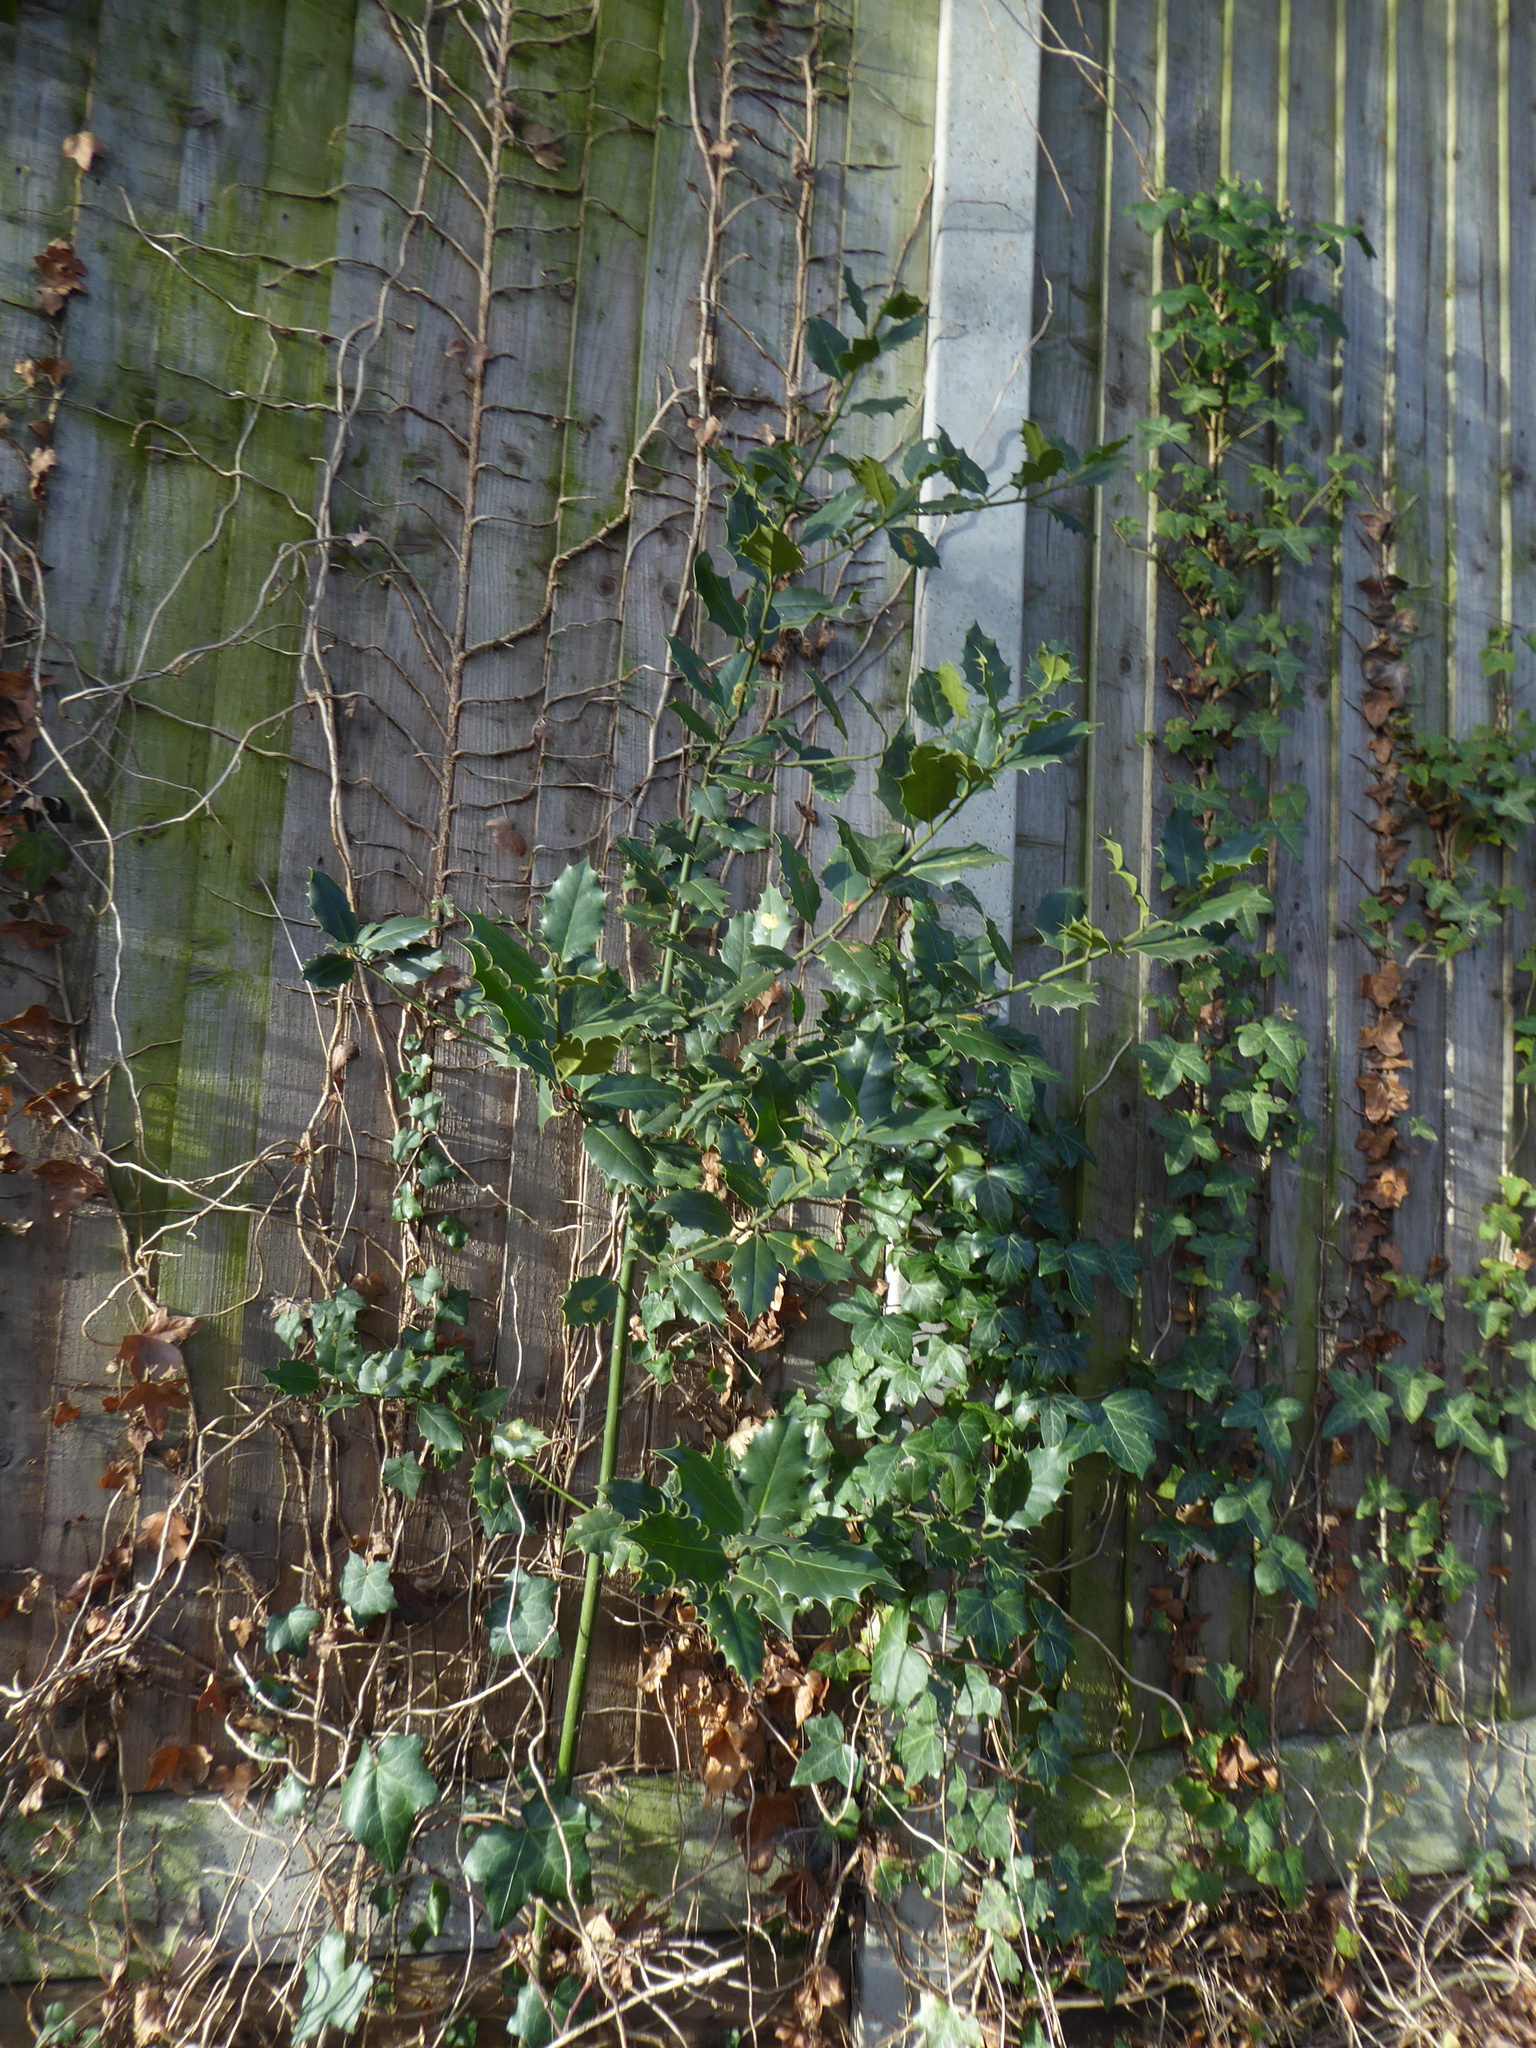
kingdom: Plantae
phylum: Tracheophyta
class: Magnoliopsida
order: Aquifoliales
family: Aquifoliaceae
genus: Ilex
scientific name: Ilex aquifolium
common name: English holly
